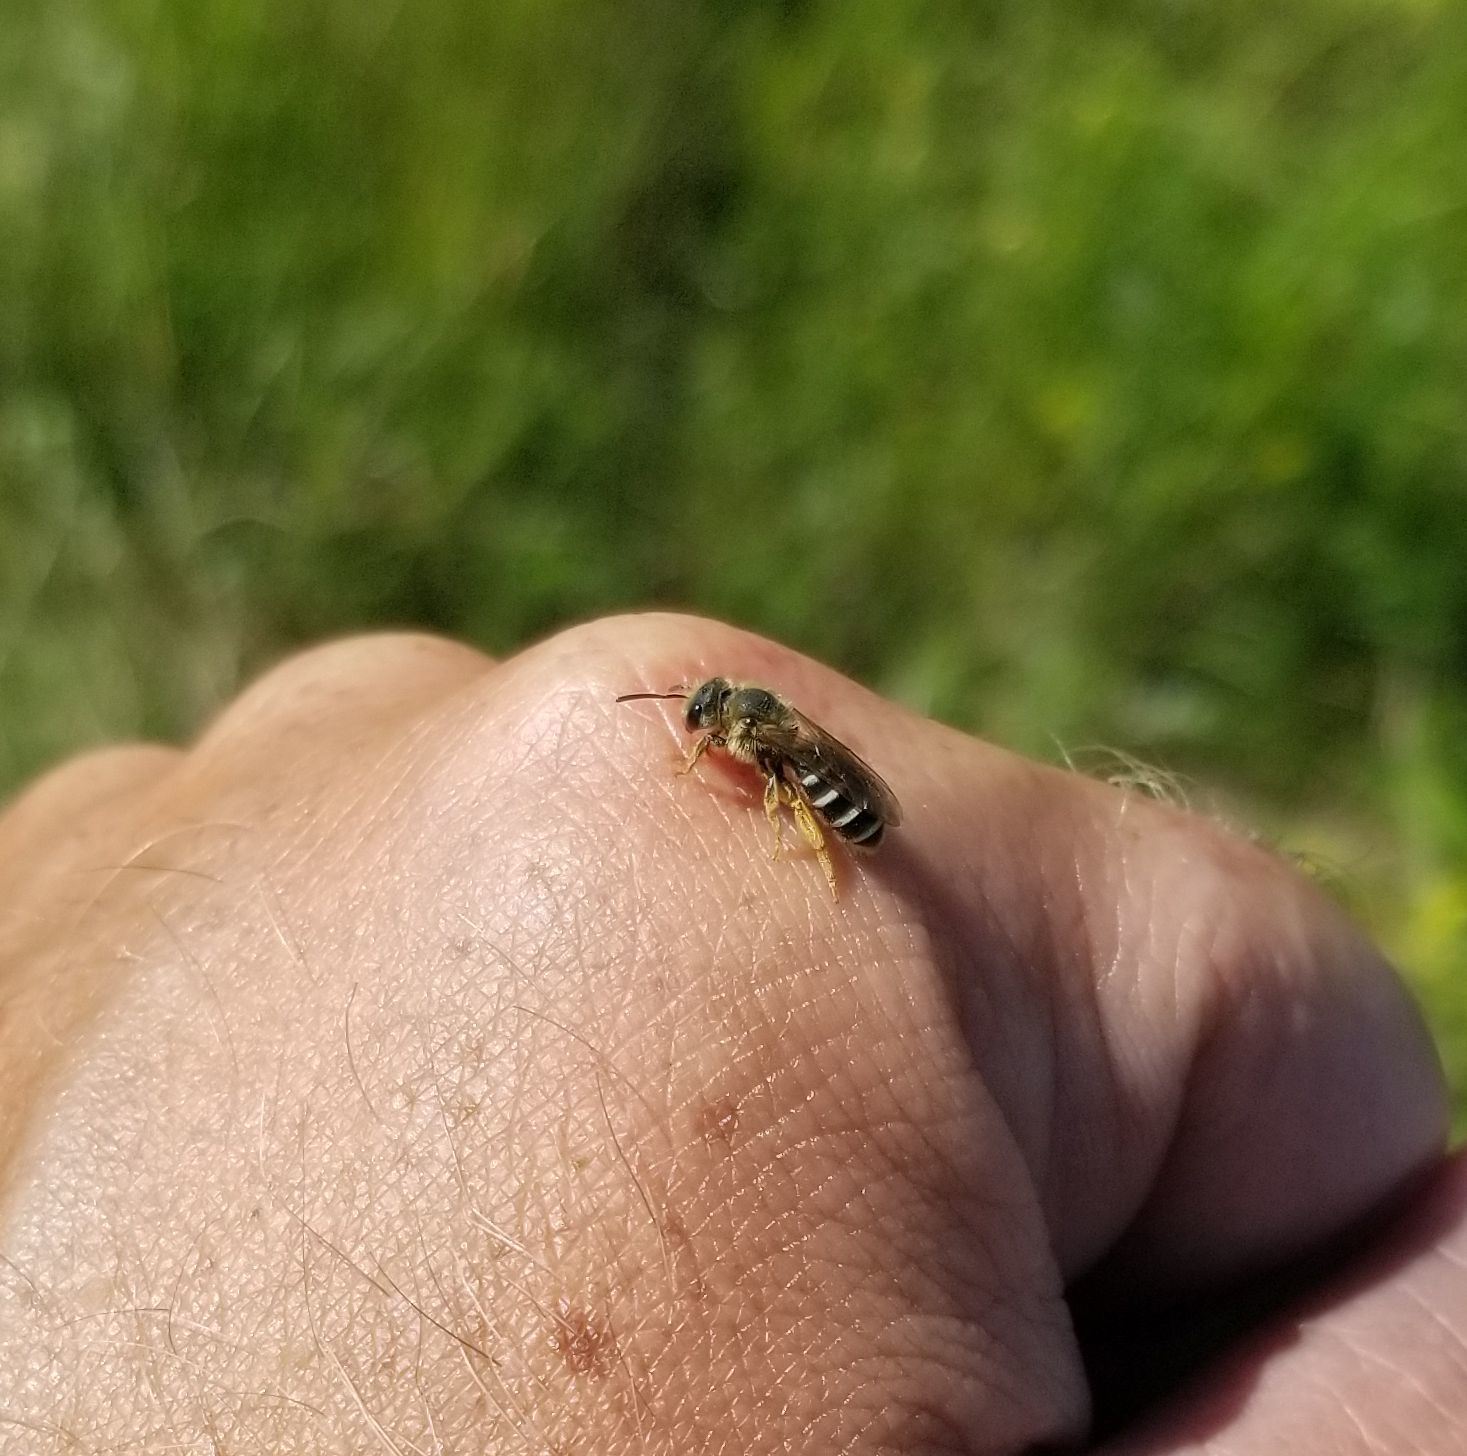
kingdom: Animalia
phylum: Arthropoda
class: Insecta
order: Hymenoptera
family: Halictidae
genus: Halictus
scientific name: Halictus rubicundus
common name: Orange-legged furrow bee
